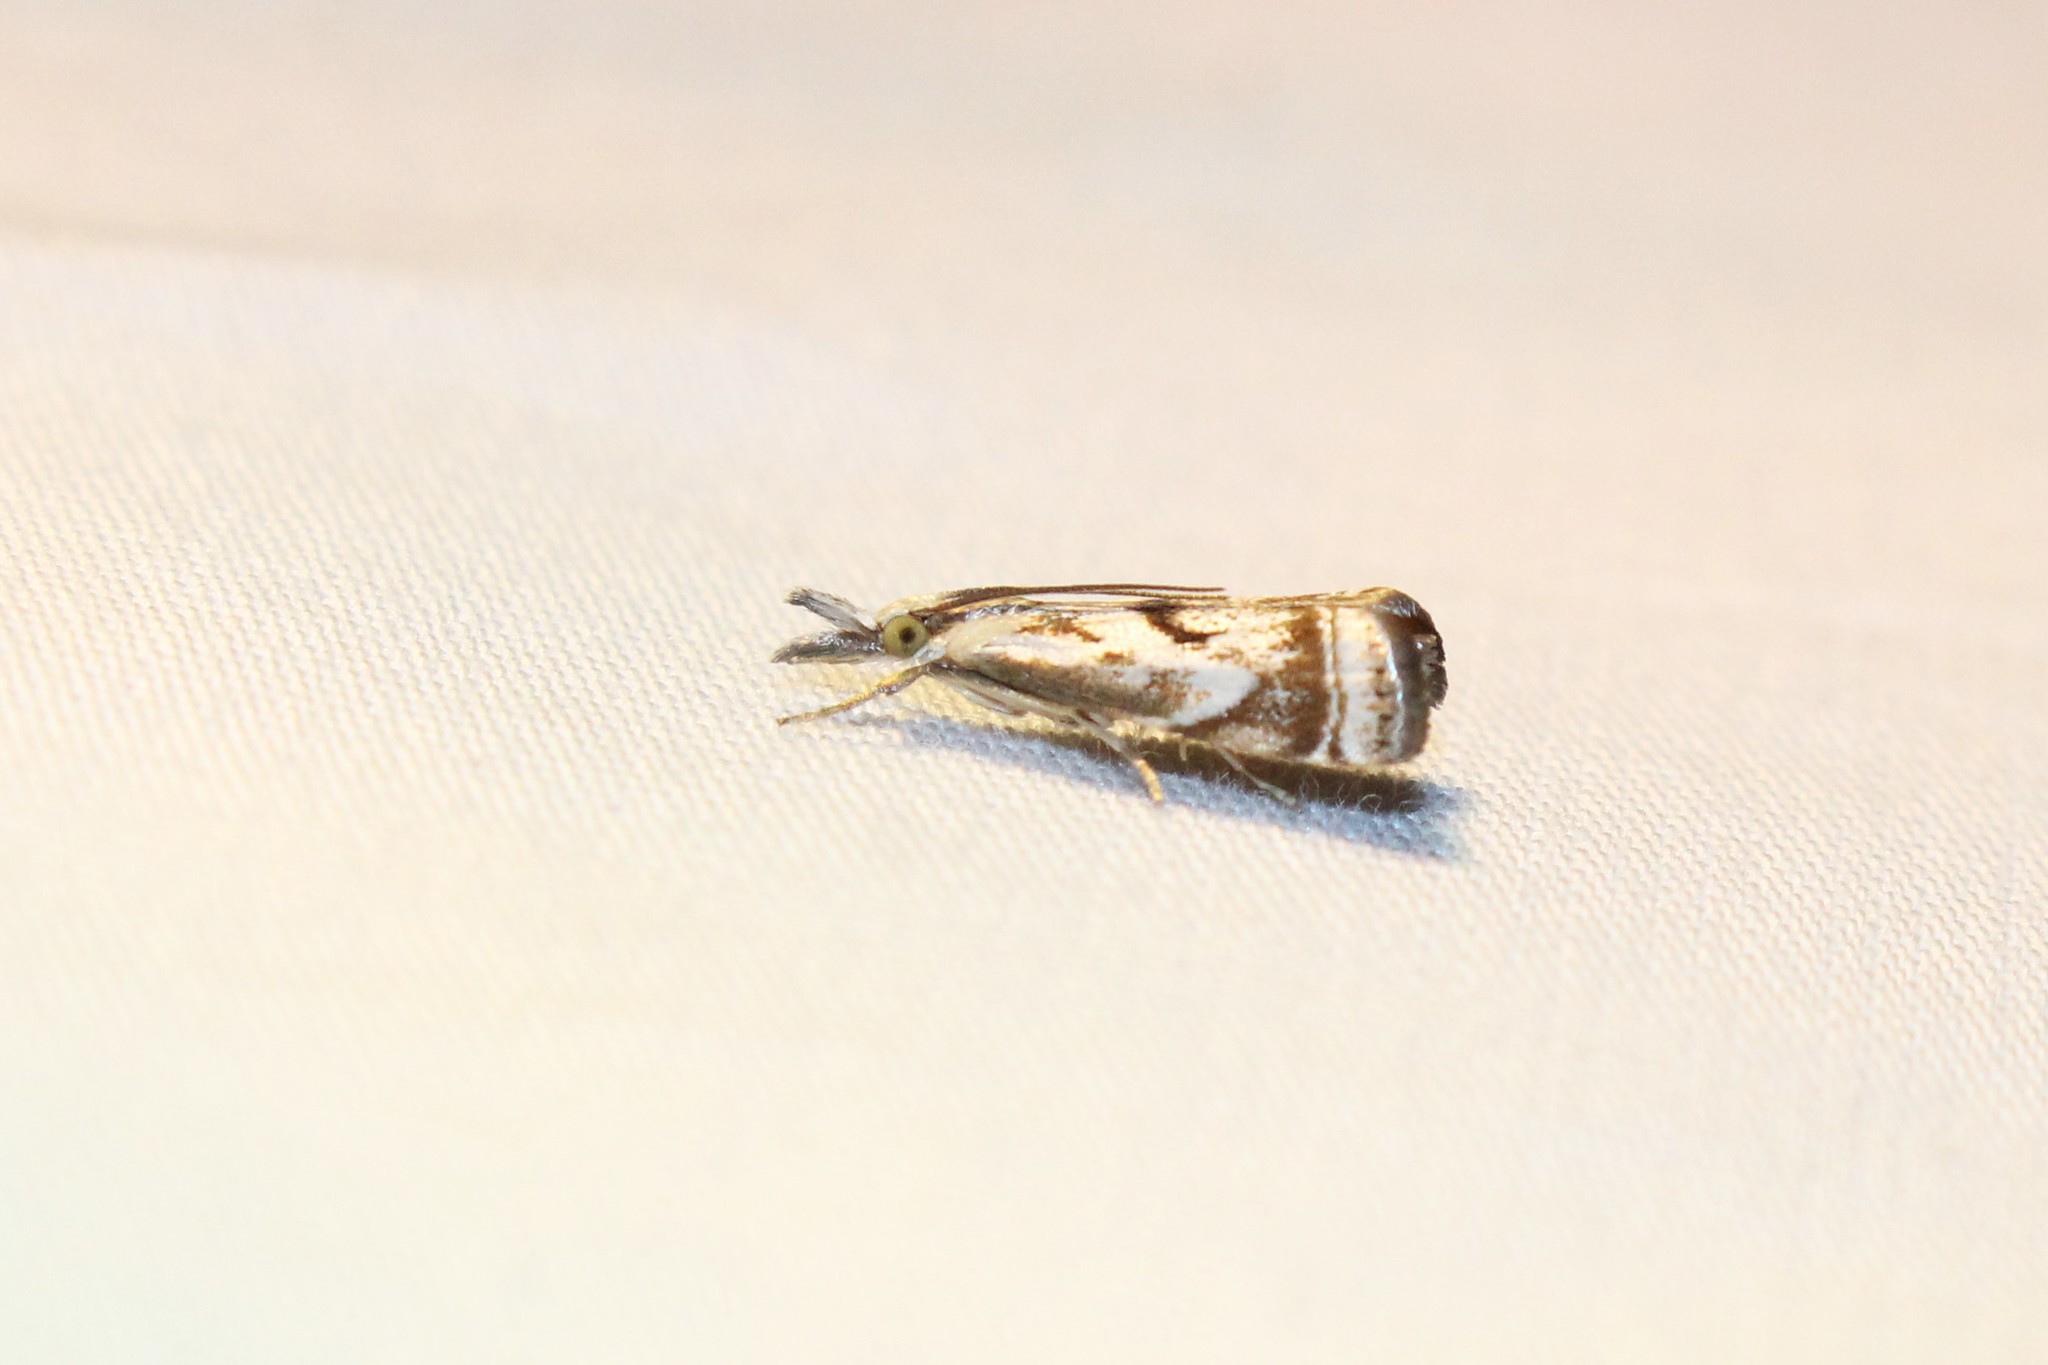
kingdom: Animalia
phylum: Arthropoda
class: Insecta
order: Lepidoptera
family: Crambidae
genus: Microcrambus
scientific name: Microcrambus elegans
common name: Elegant grass-veneer
